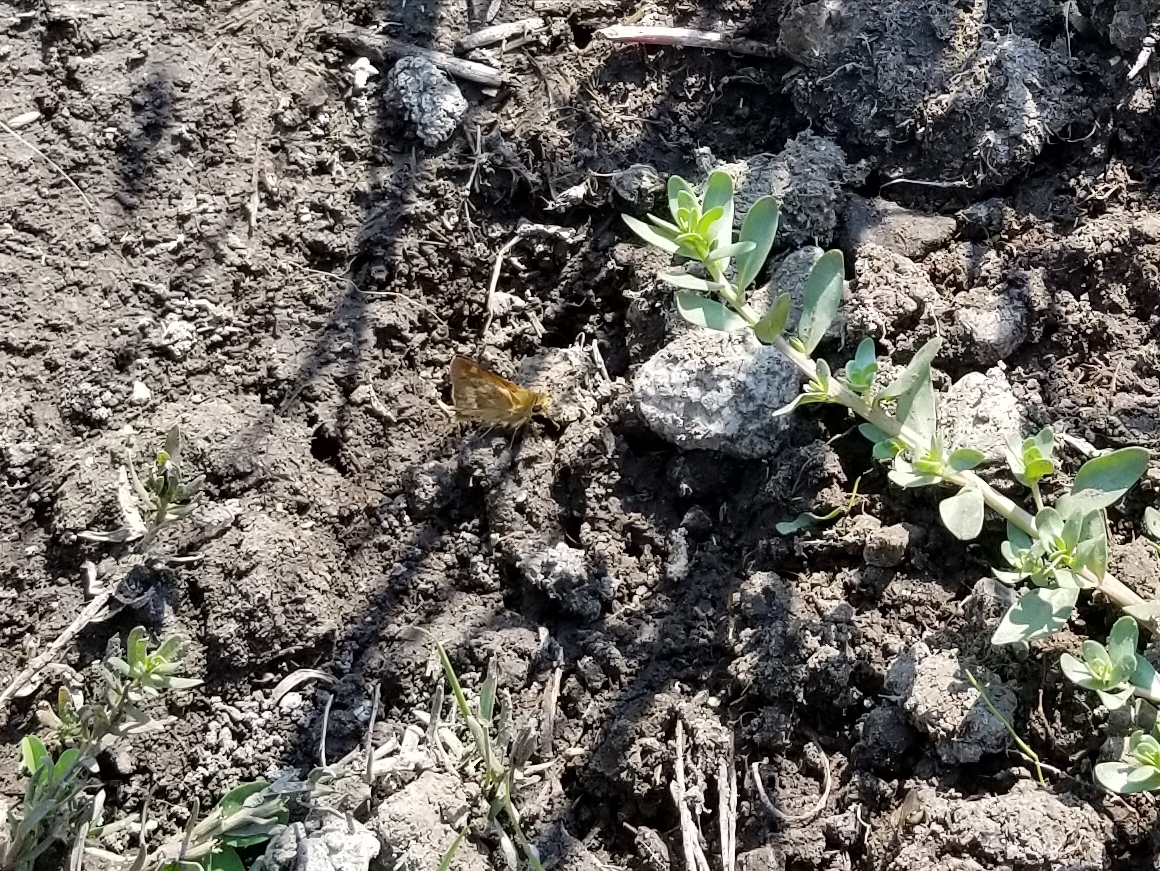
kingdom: Animalia
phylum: Arthropoda
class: Insecta
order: Lepidoptera
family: Hesperiidae
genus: Ochlodes
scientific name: Ochlodes sylvanoides
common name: Woodland skipper
